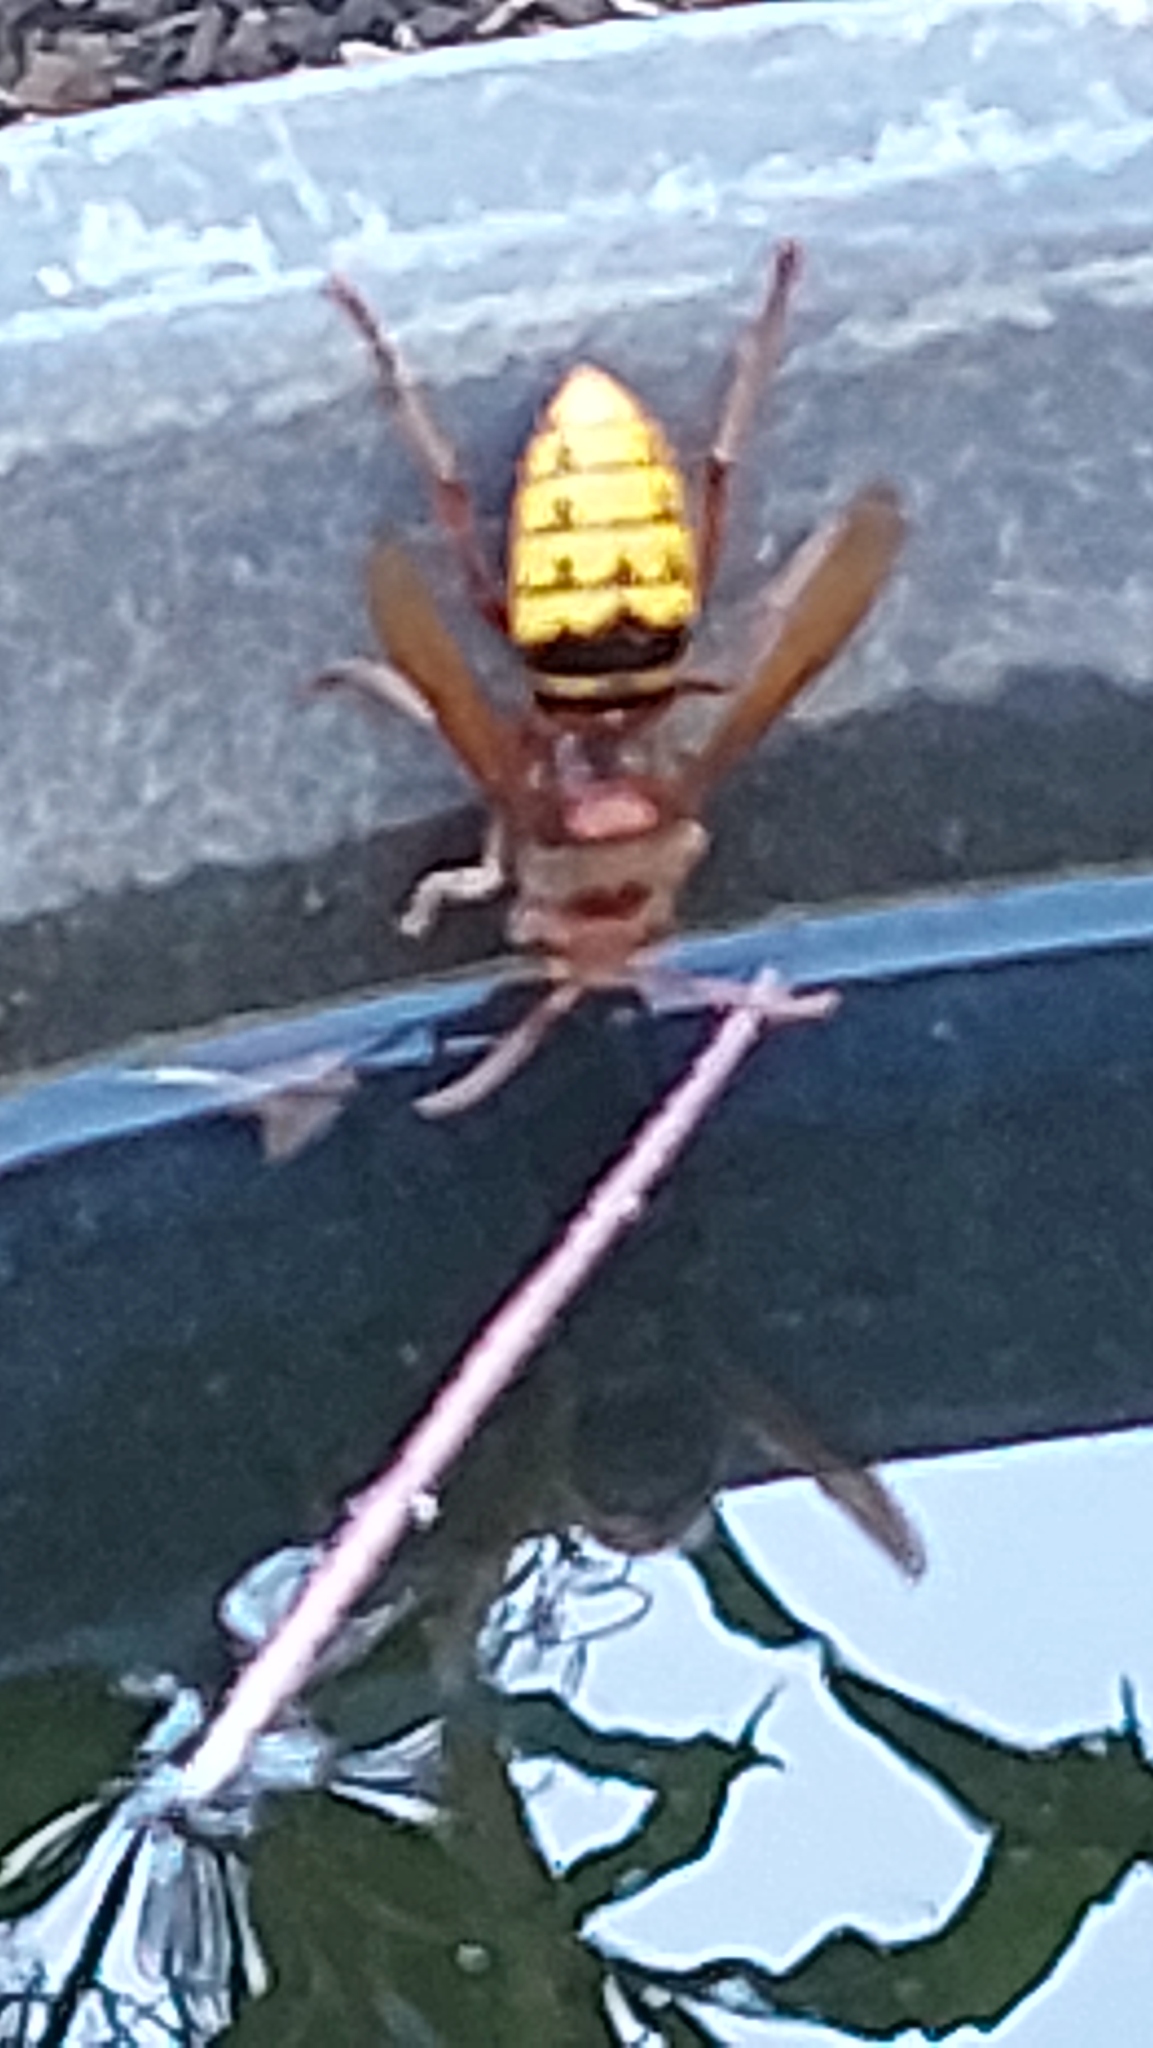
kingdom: Animalia
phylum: Arthropoda
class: Insecta
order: Hymenoptera
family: Vespidae
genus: Vespa
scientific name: Vespa crabro
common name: Hornet
